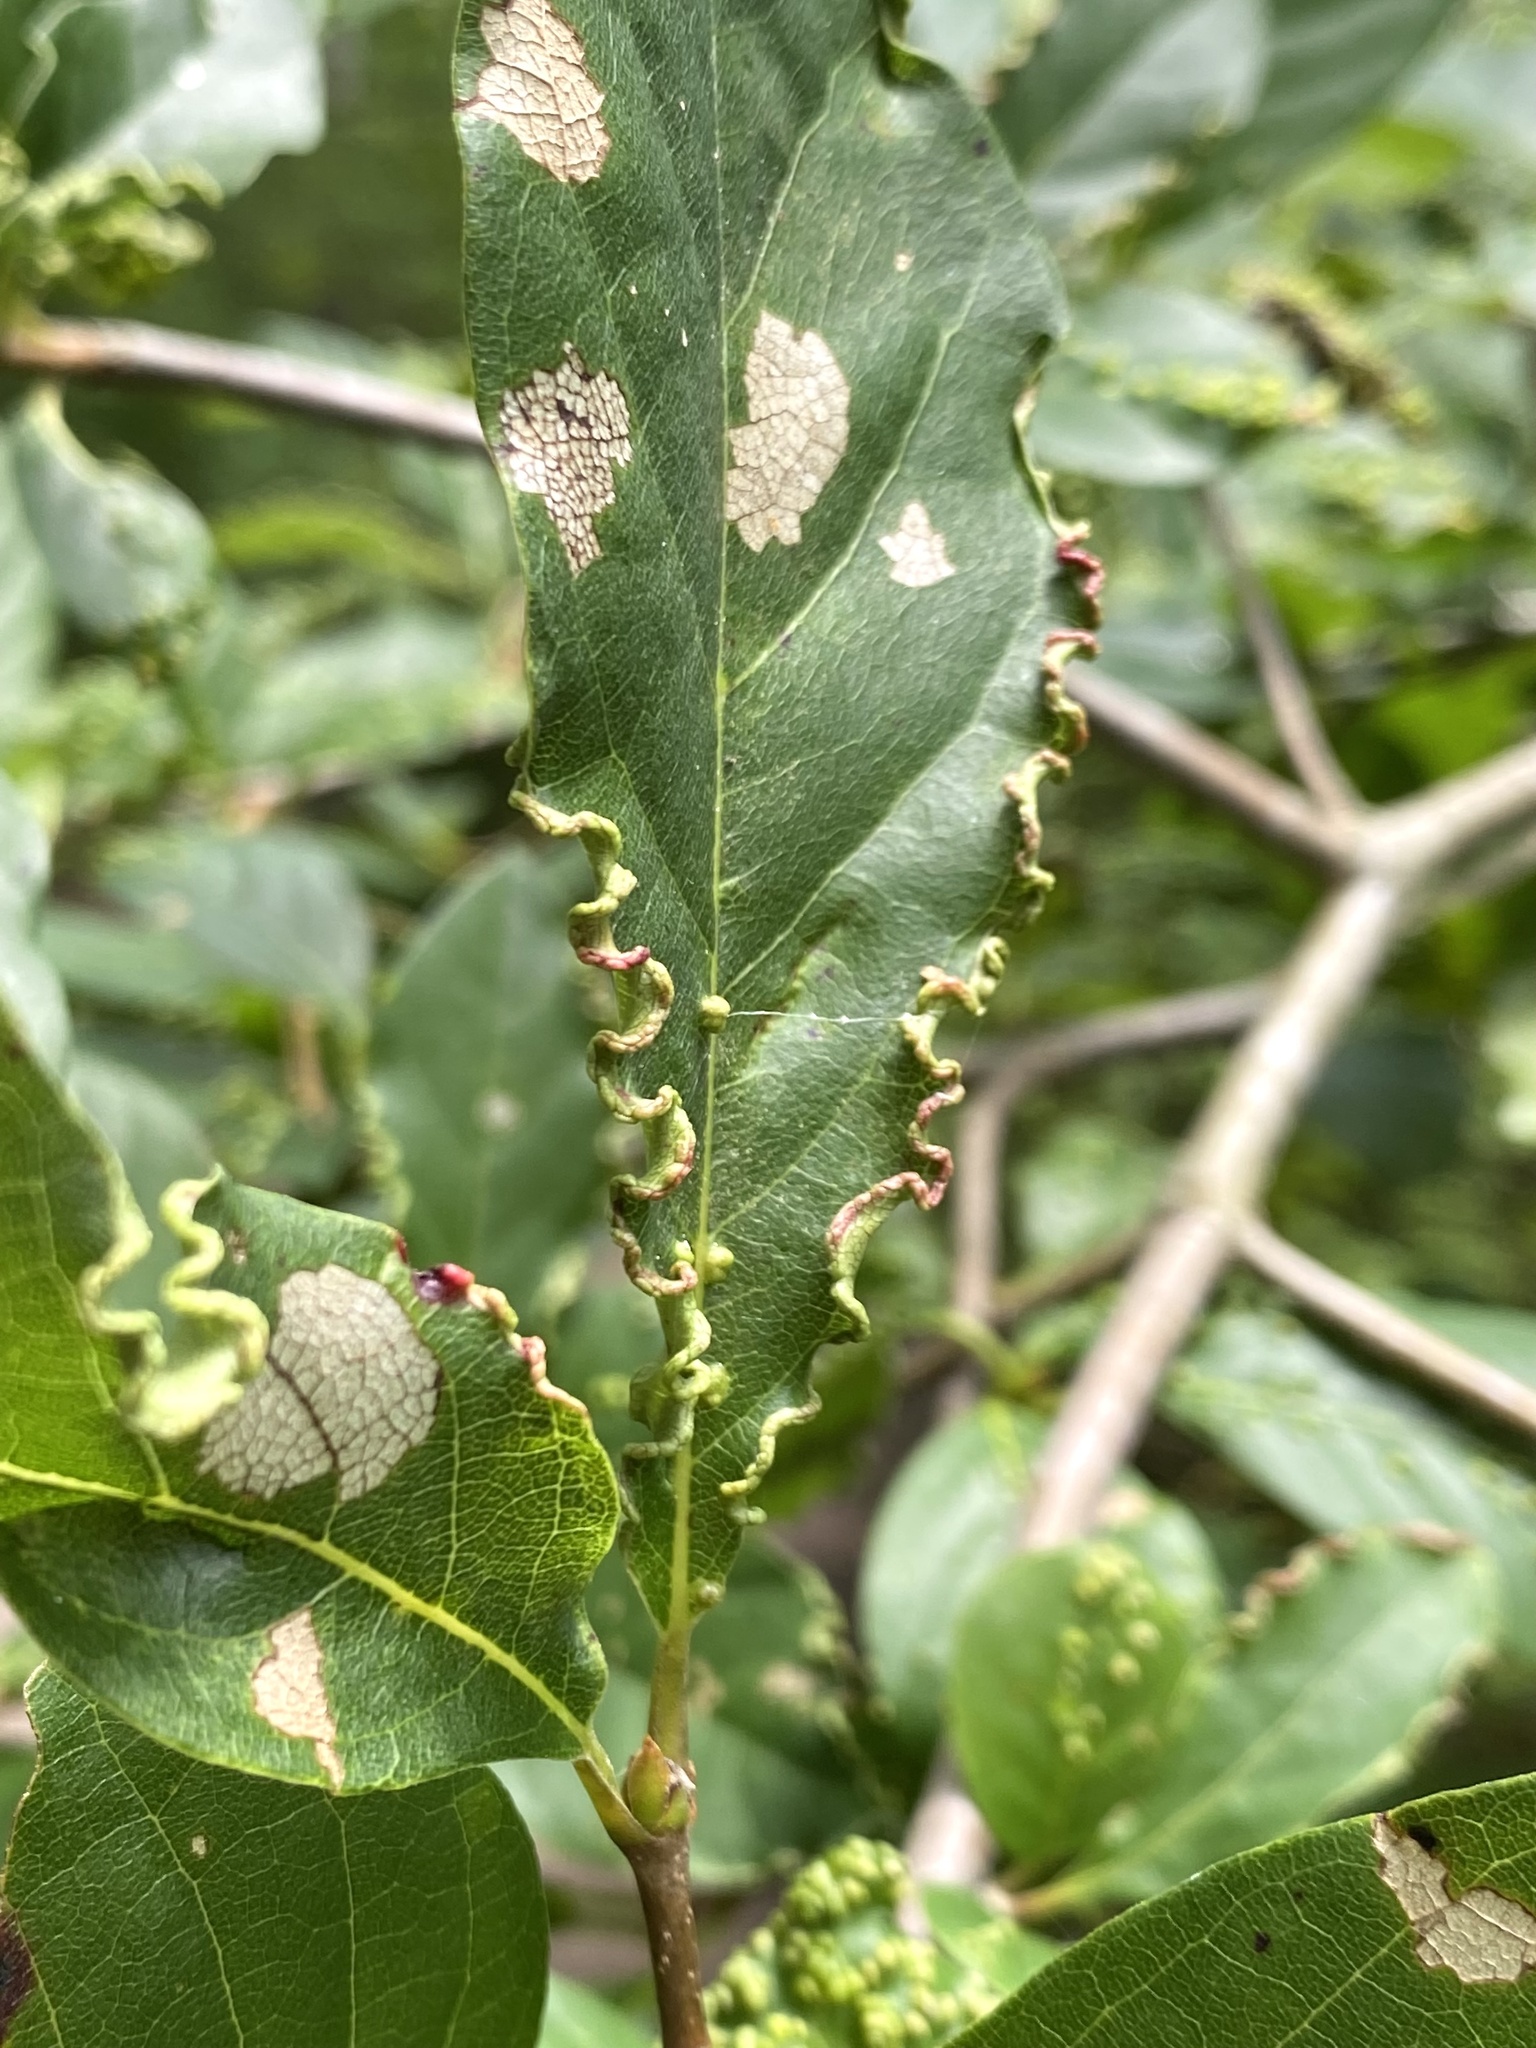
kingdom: Animalia
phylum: Arthropoda
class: Arachnida
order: Trombidiformes
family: Eriophyidae
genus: Aceria
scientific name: Aceria
